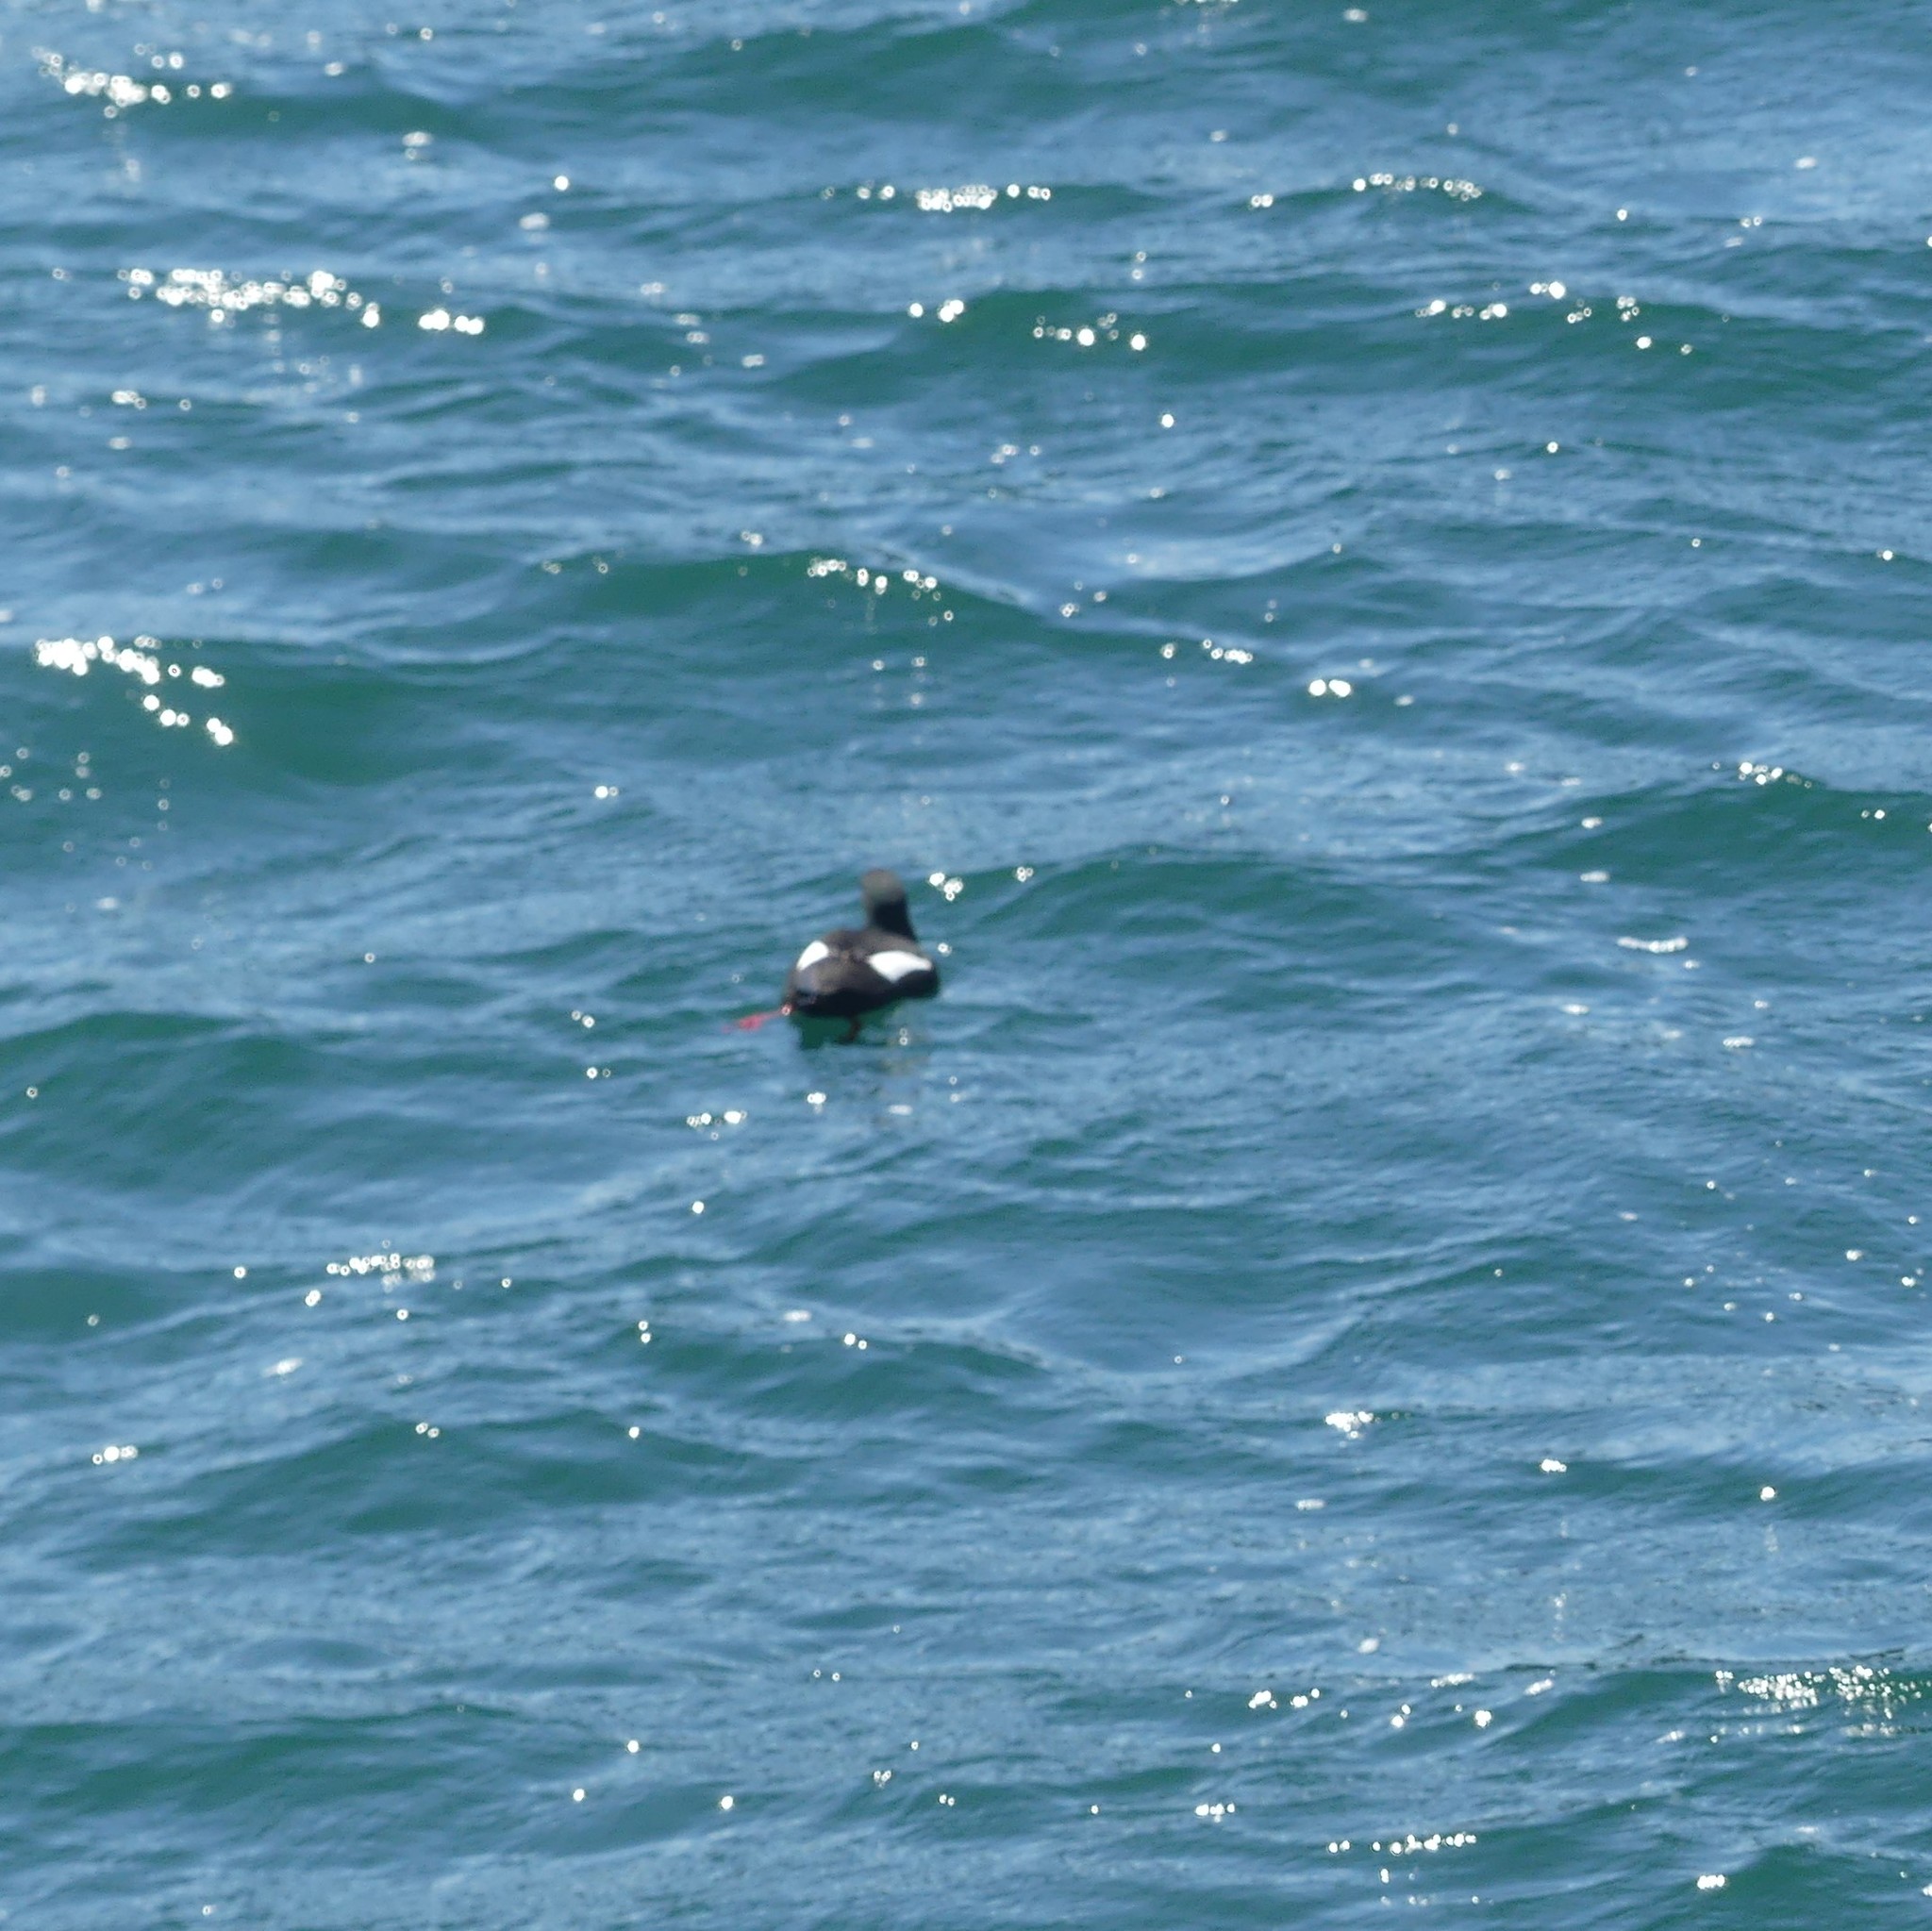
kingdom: Animalia
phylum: Chordata
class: Aves
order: Charadriiformes
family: Alcidae
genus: Cepphus
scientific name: Cepphus grylle
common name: Black guillemot
